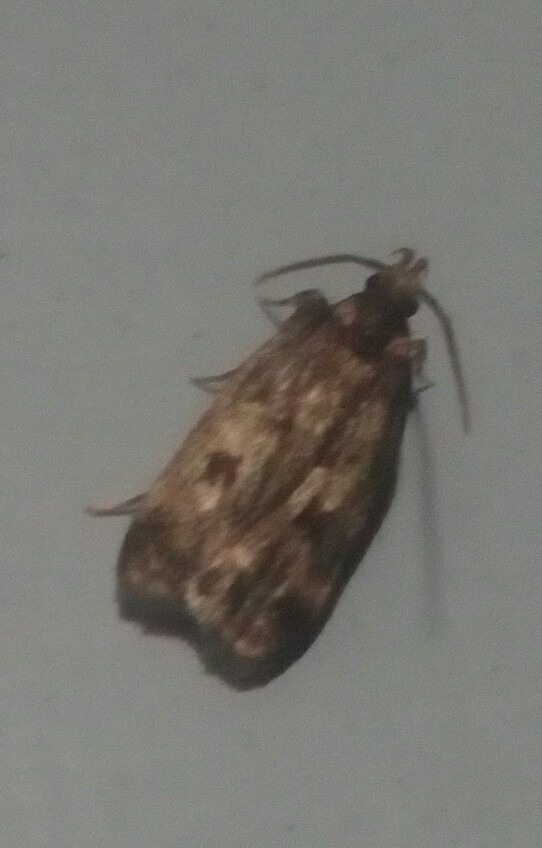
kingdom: Animalia
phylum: Arthropoda
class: Insecta
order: Lepidoptera
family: Lecithoceridae
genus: Martyringa
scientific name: Martyringa latipennis
